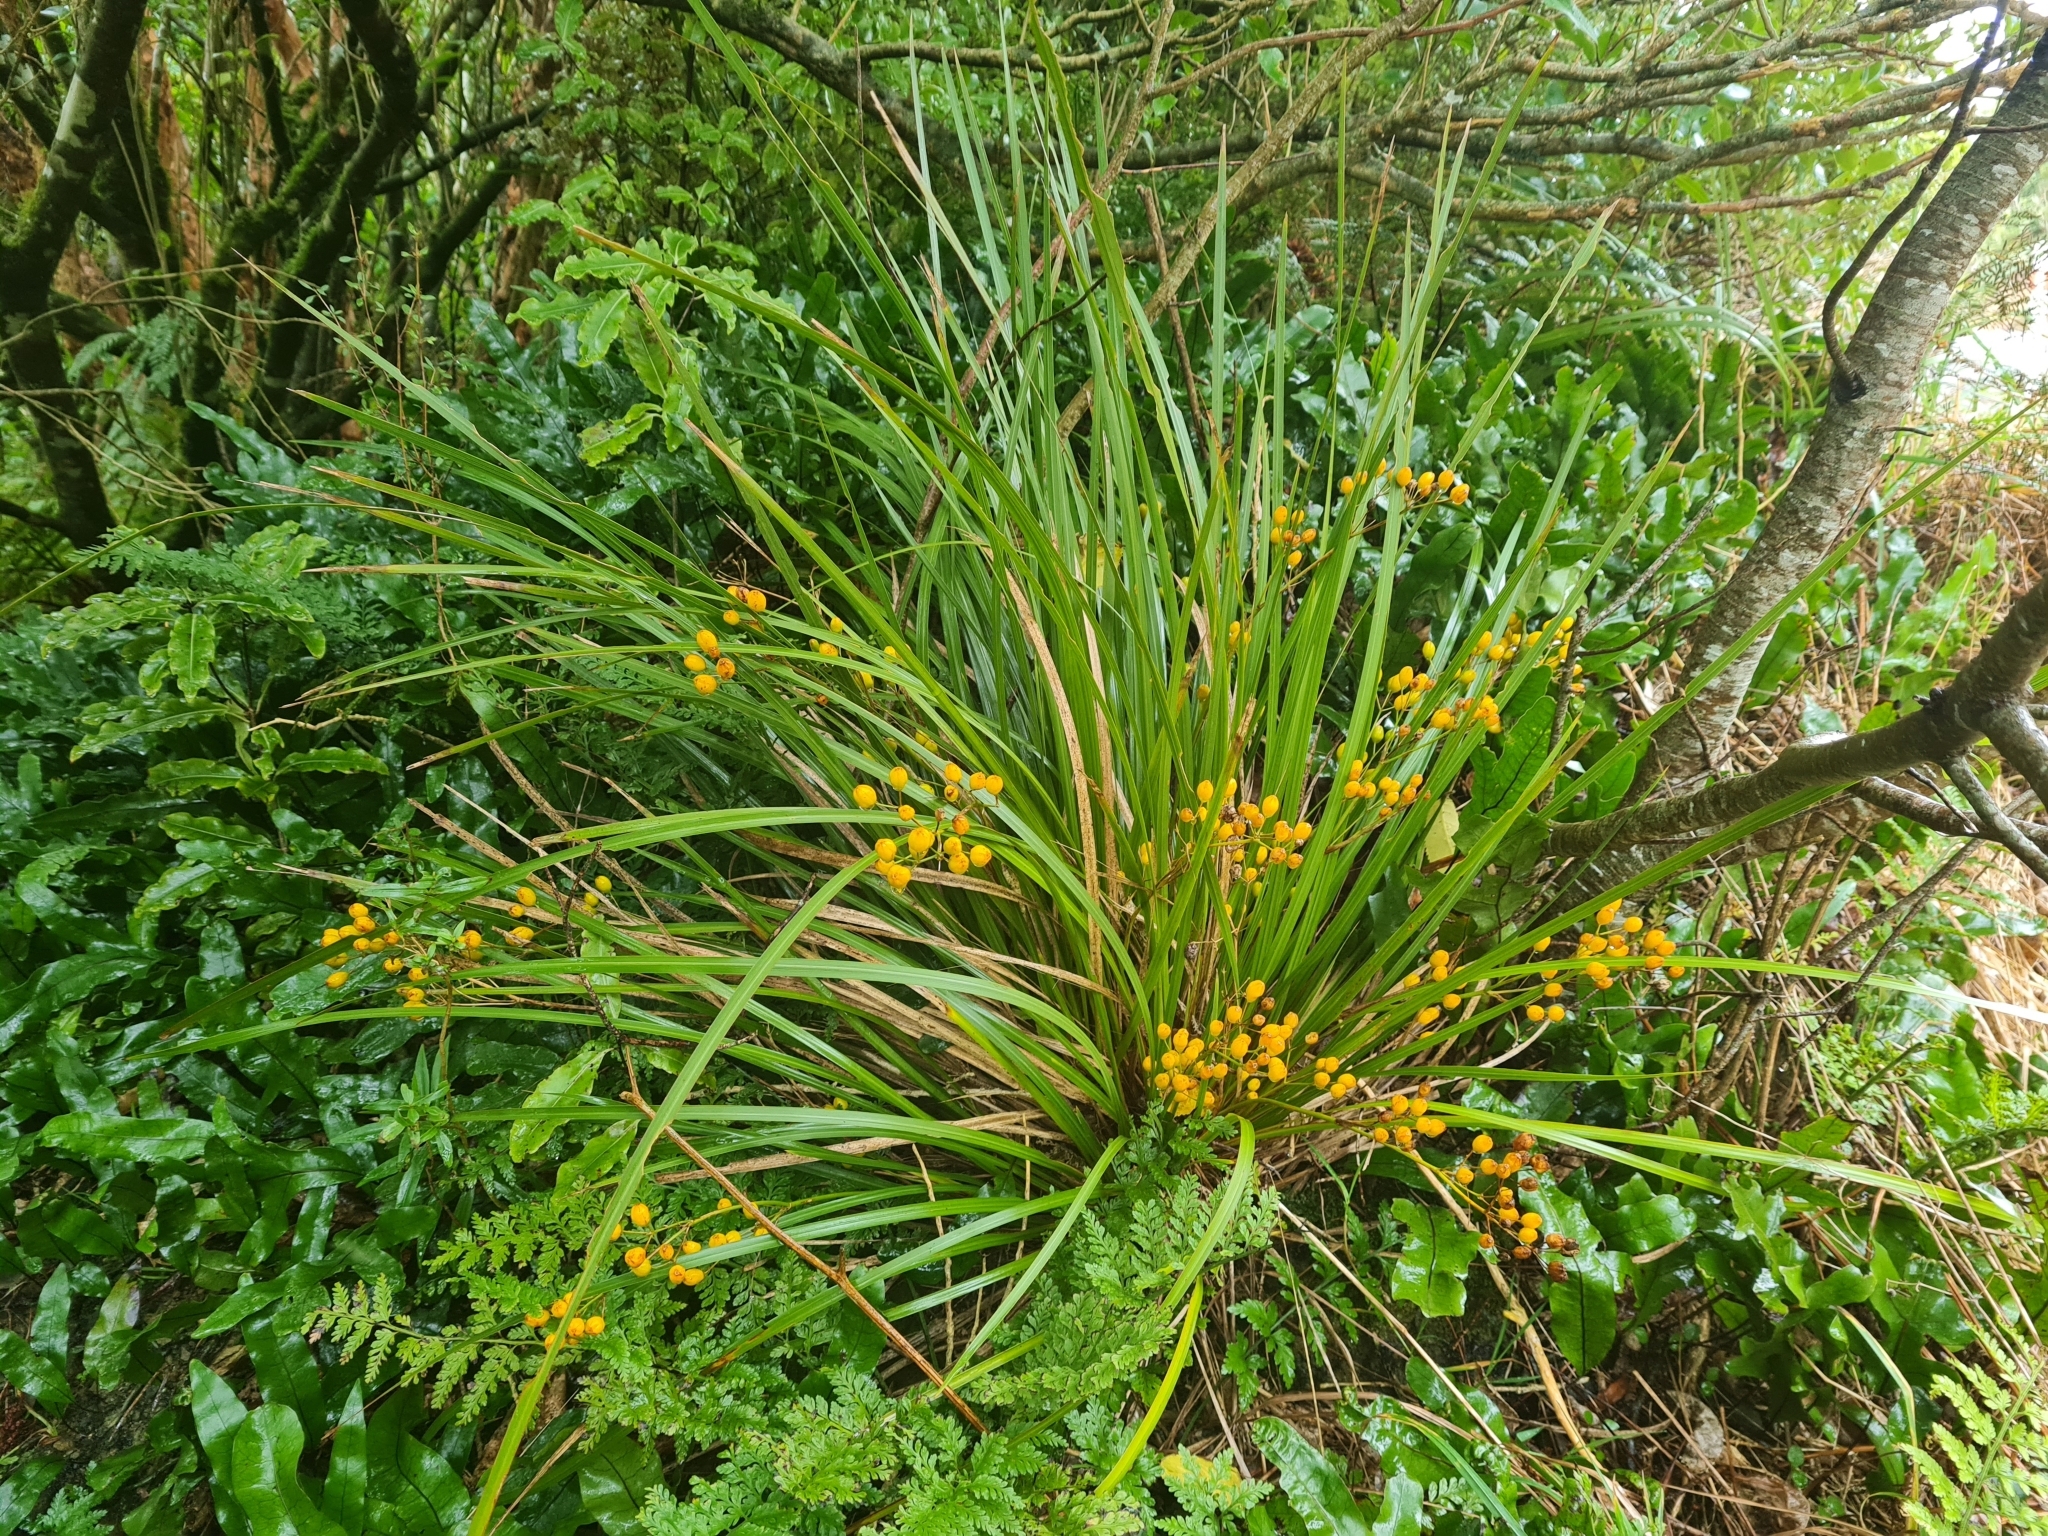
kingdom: Plantae
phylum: Tracheophyta
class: Liliopsida
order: Asparagales
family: Iridaceae
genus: Libertia
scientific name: Libertia ixioides
